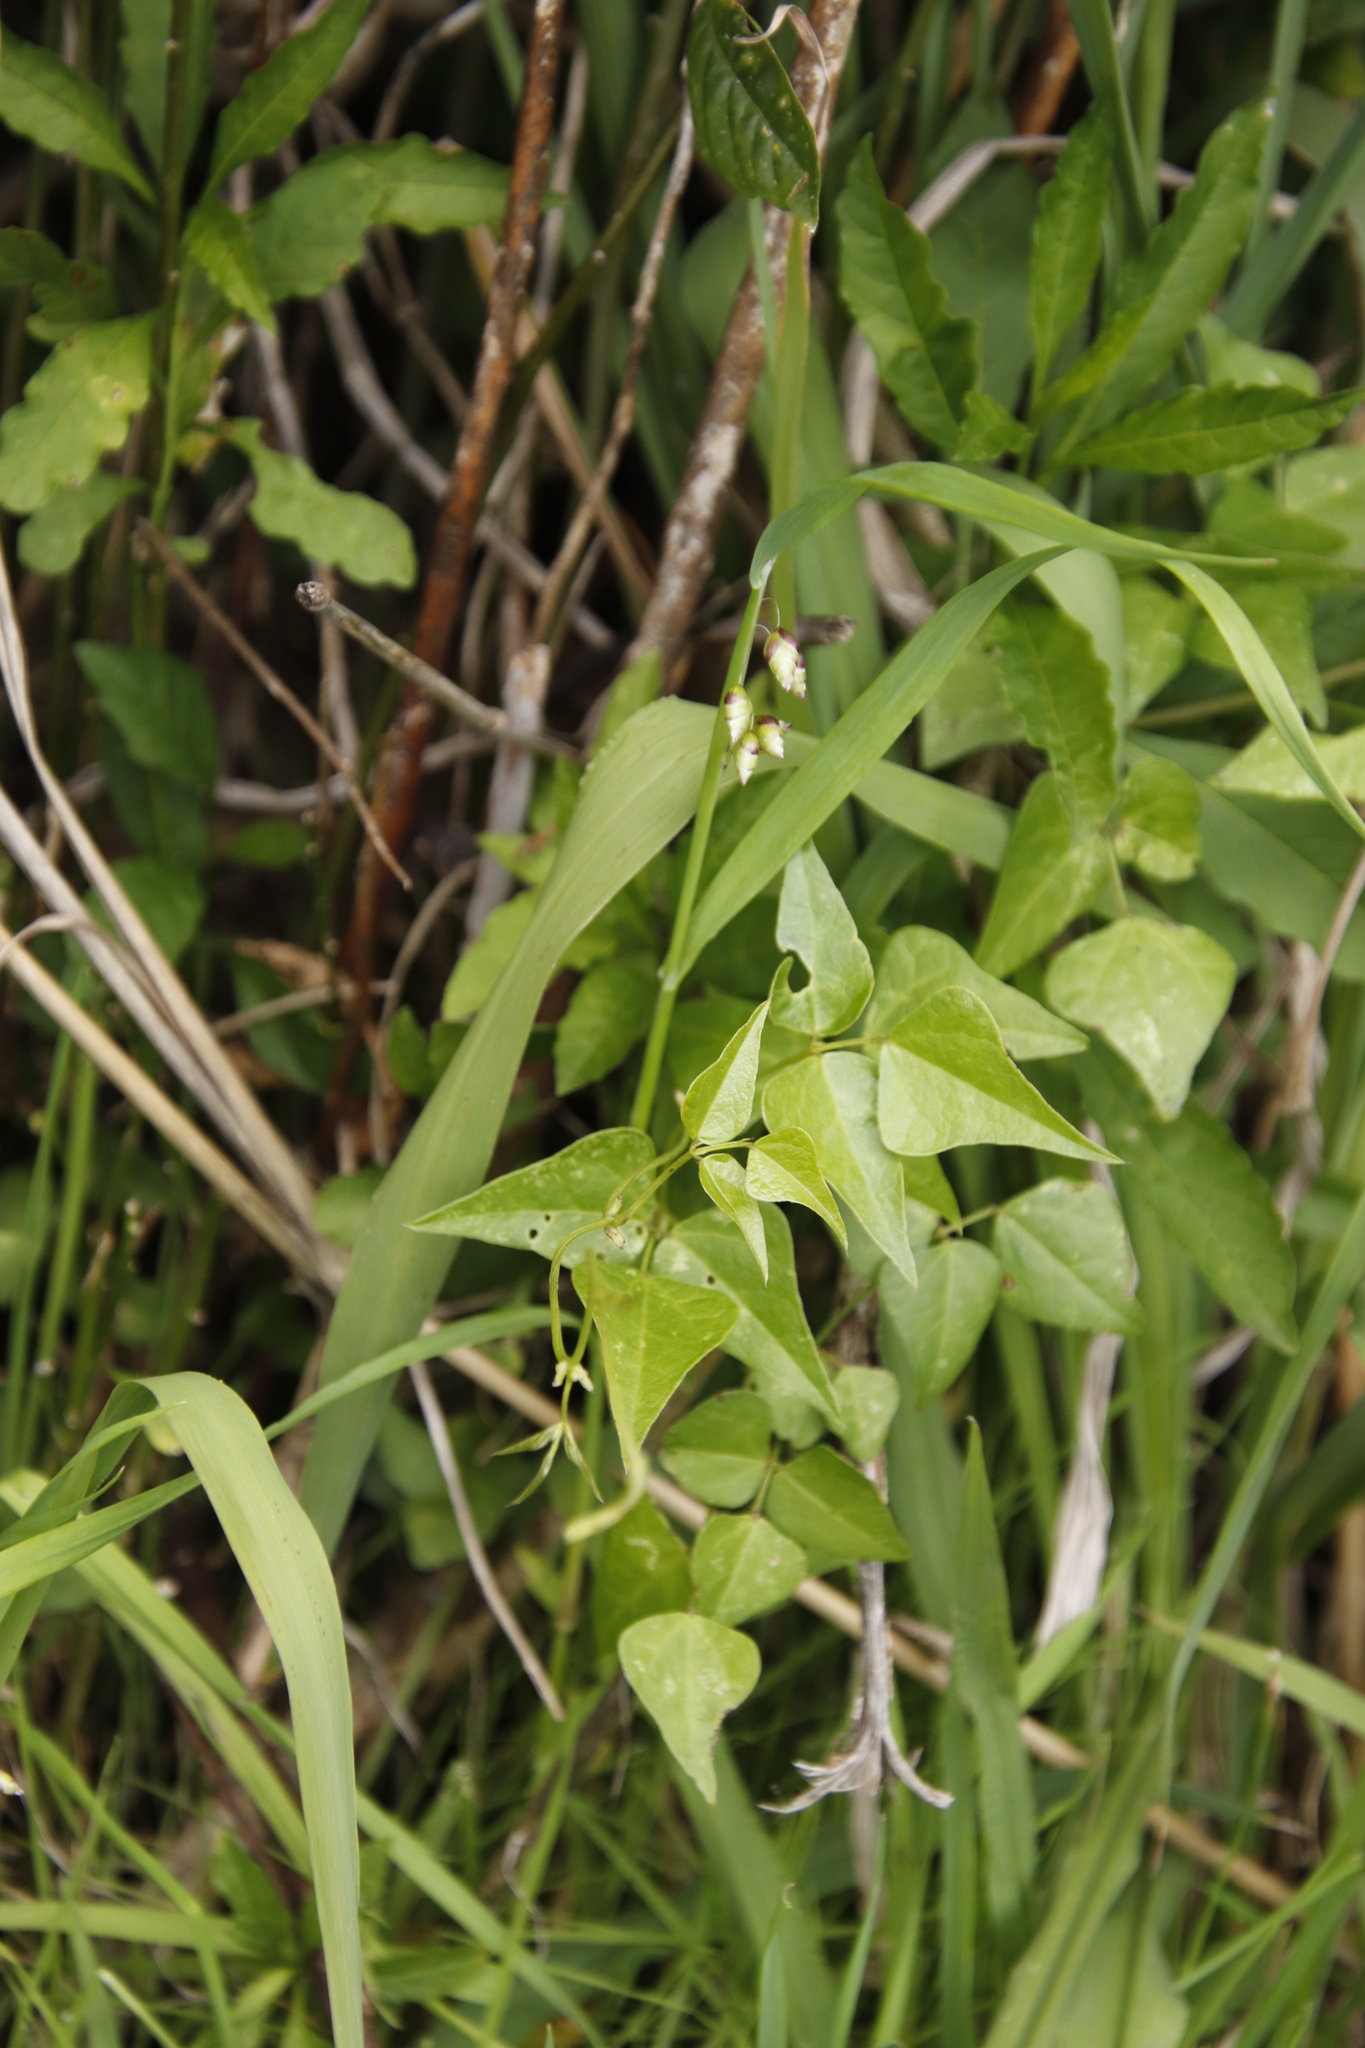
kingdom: Plantae
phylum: Tracheophyta
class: Liliopsida
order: Poales
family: Poaceae
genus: Briza
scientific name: Briza maxima
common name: Big quakinggrass
